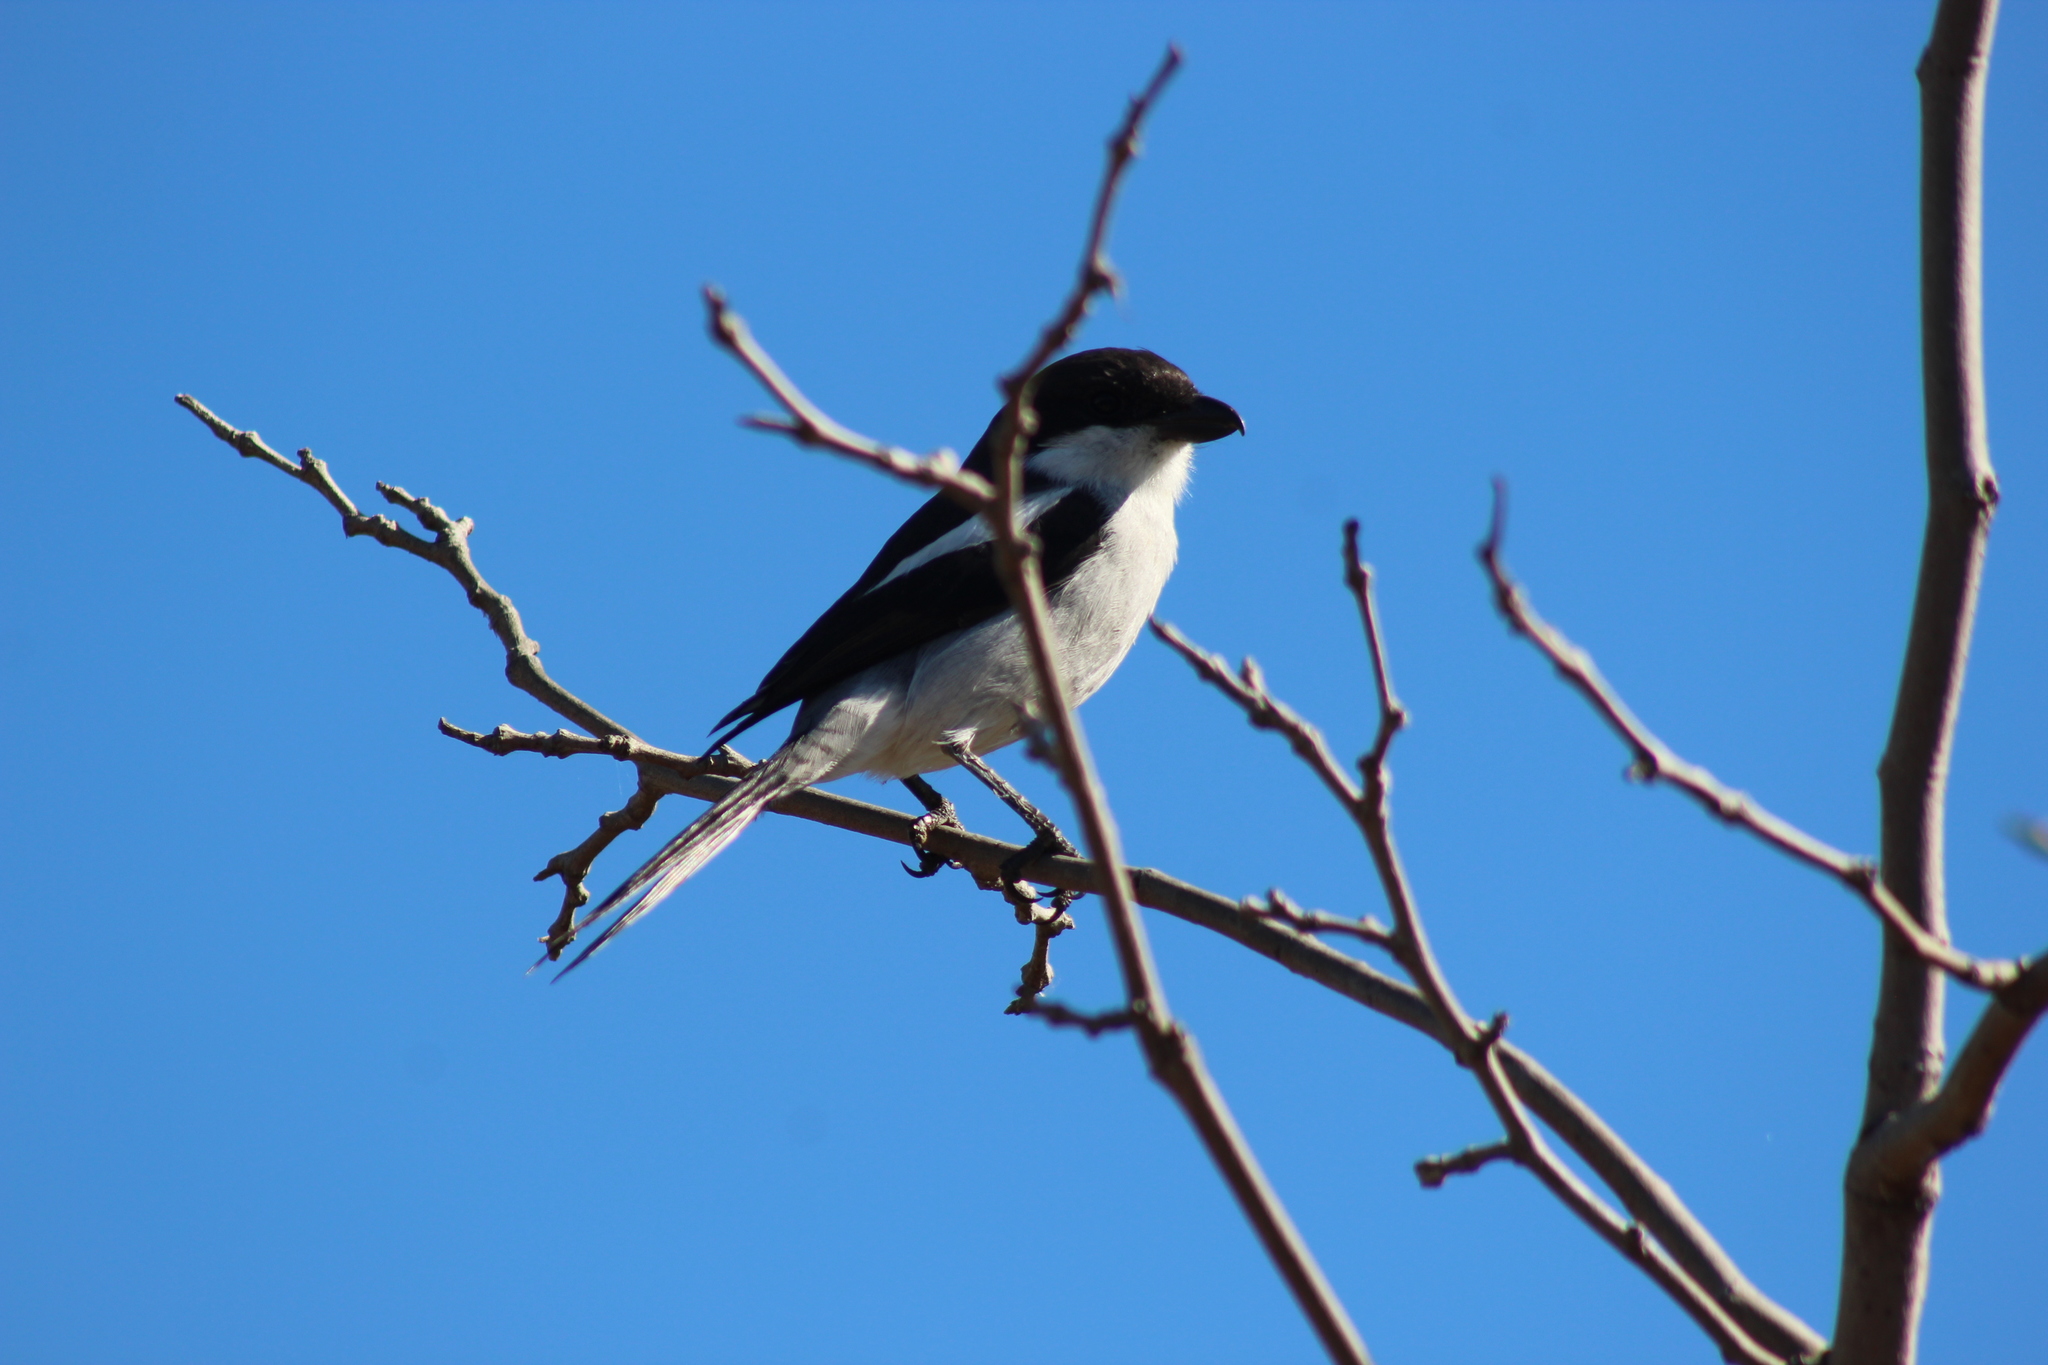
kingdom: Animalia
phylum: Chordata
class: Aves
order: Passeriformes
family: Laniidae
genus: Lanius
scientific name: Lanius collaris
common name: Southern fiscal
